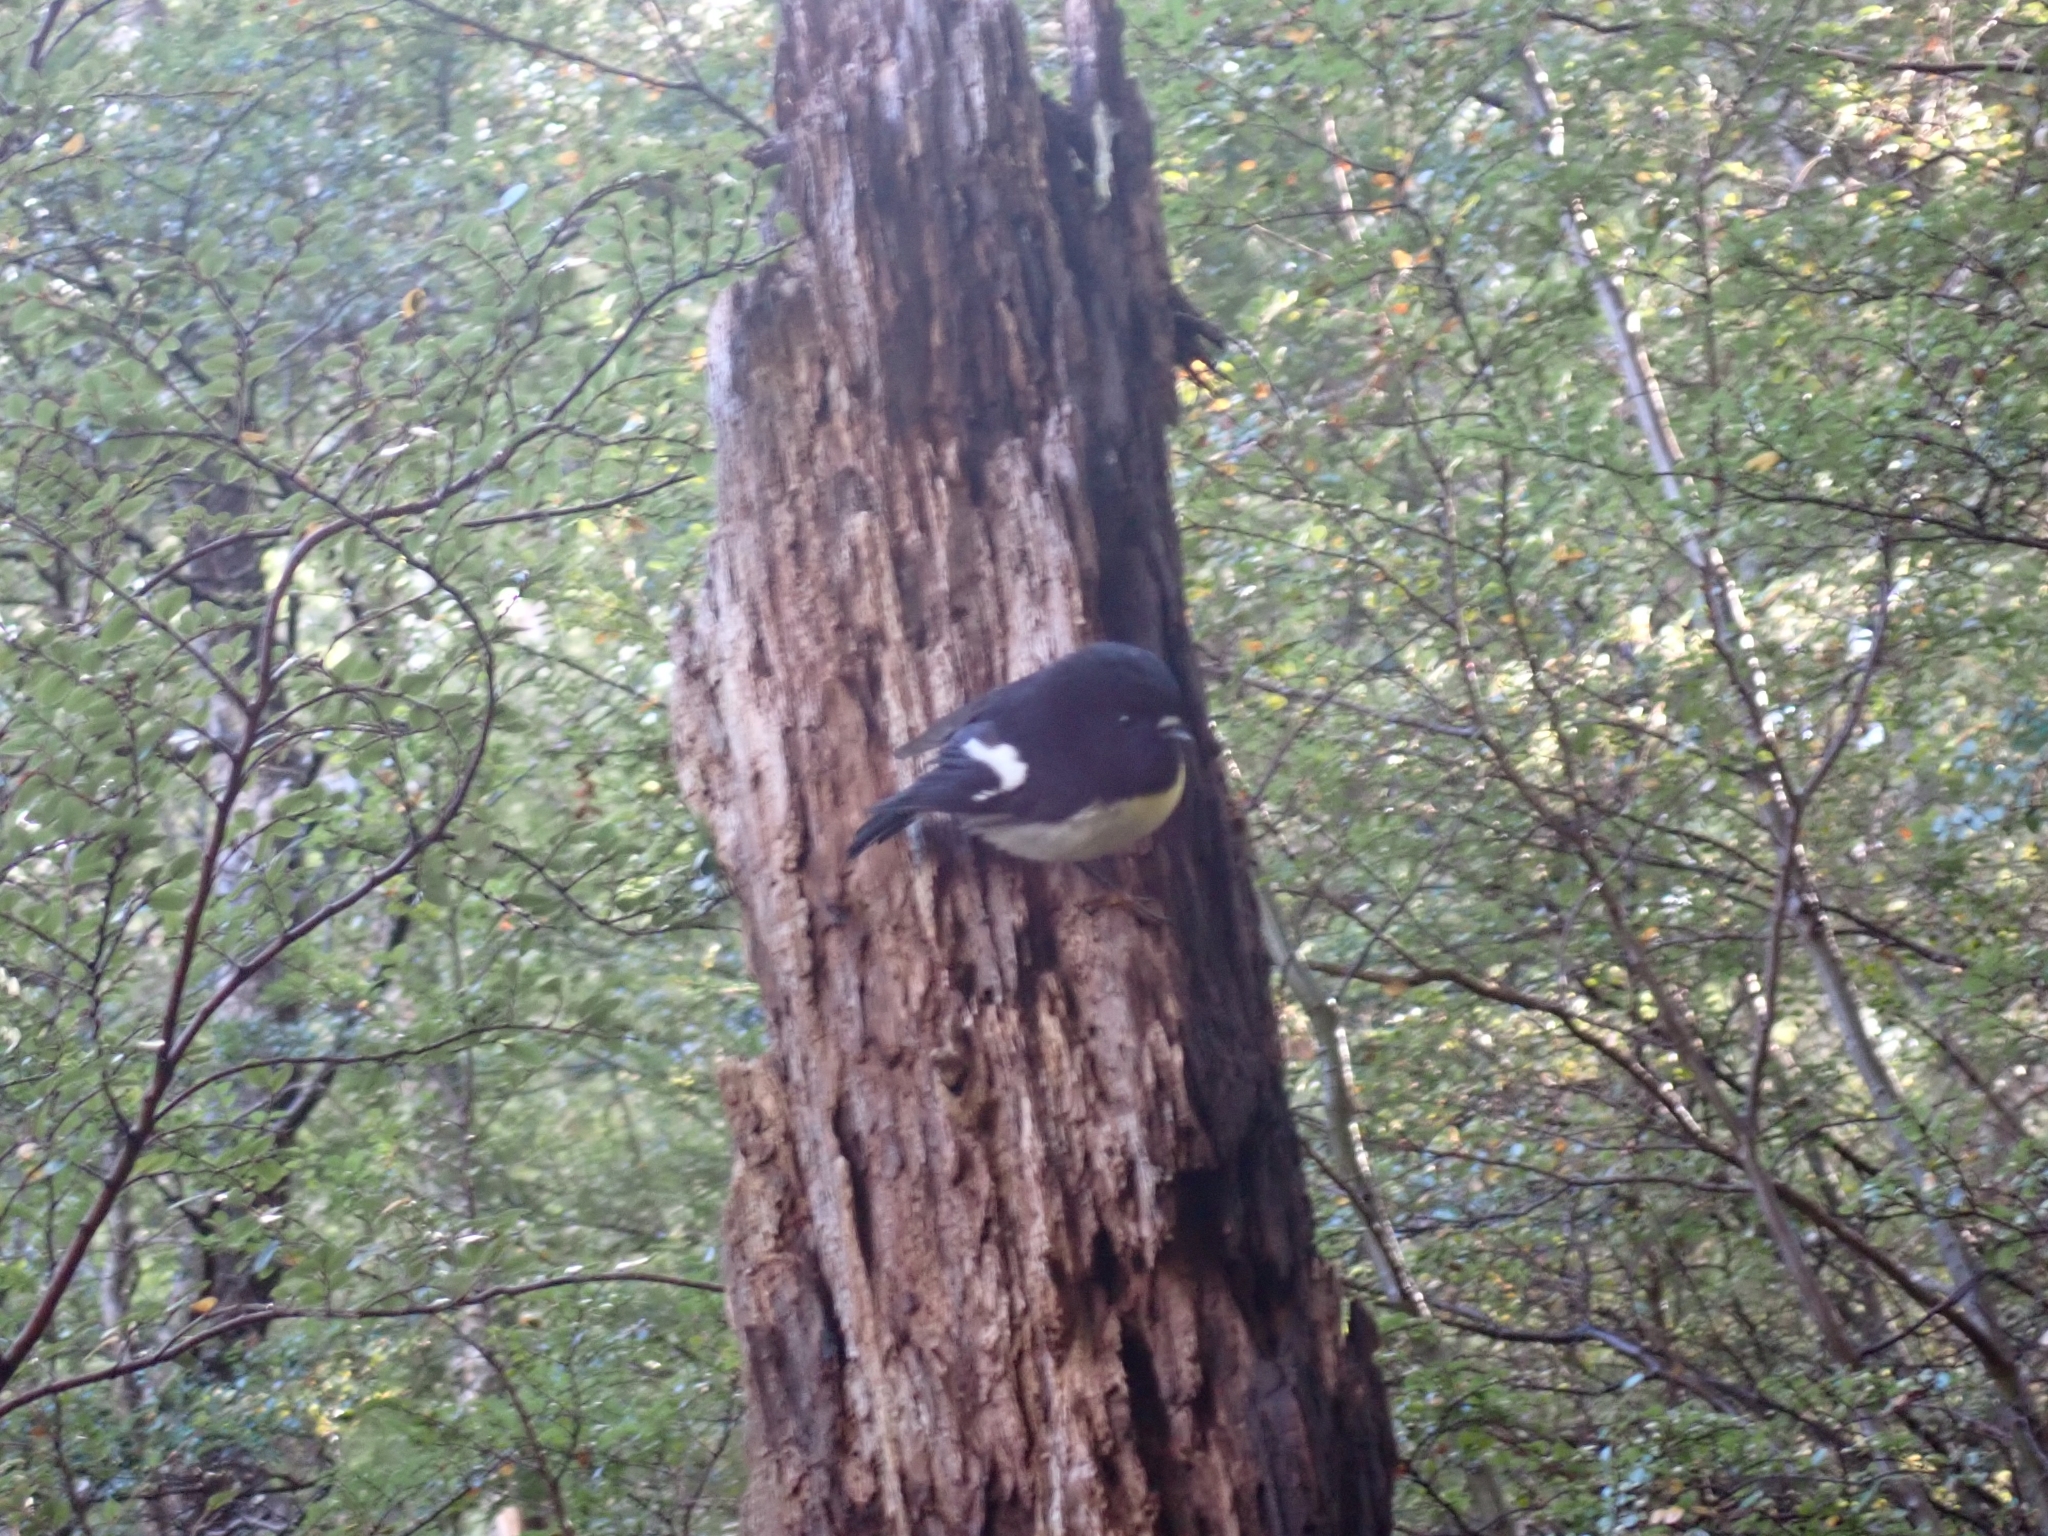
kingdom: Animalia
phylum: Chordata
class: Aves
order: Passeriformes
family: Petroicidae
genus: Petroica
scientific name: Petroica macrocephala
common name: Tomtit
